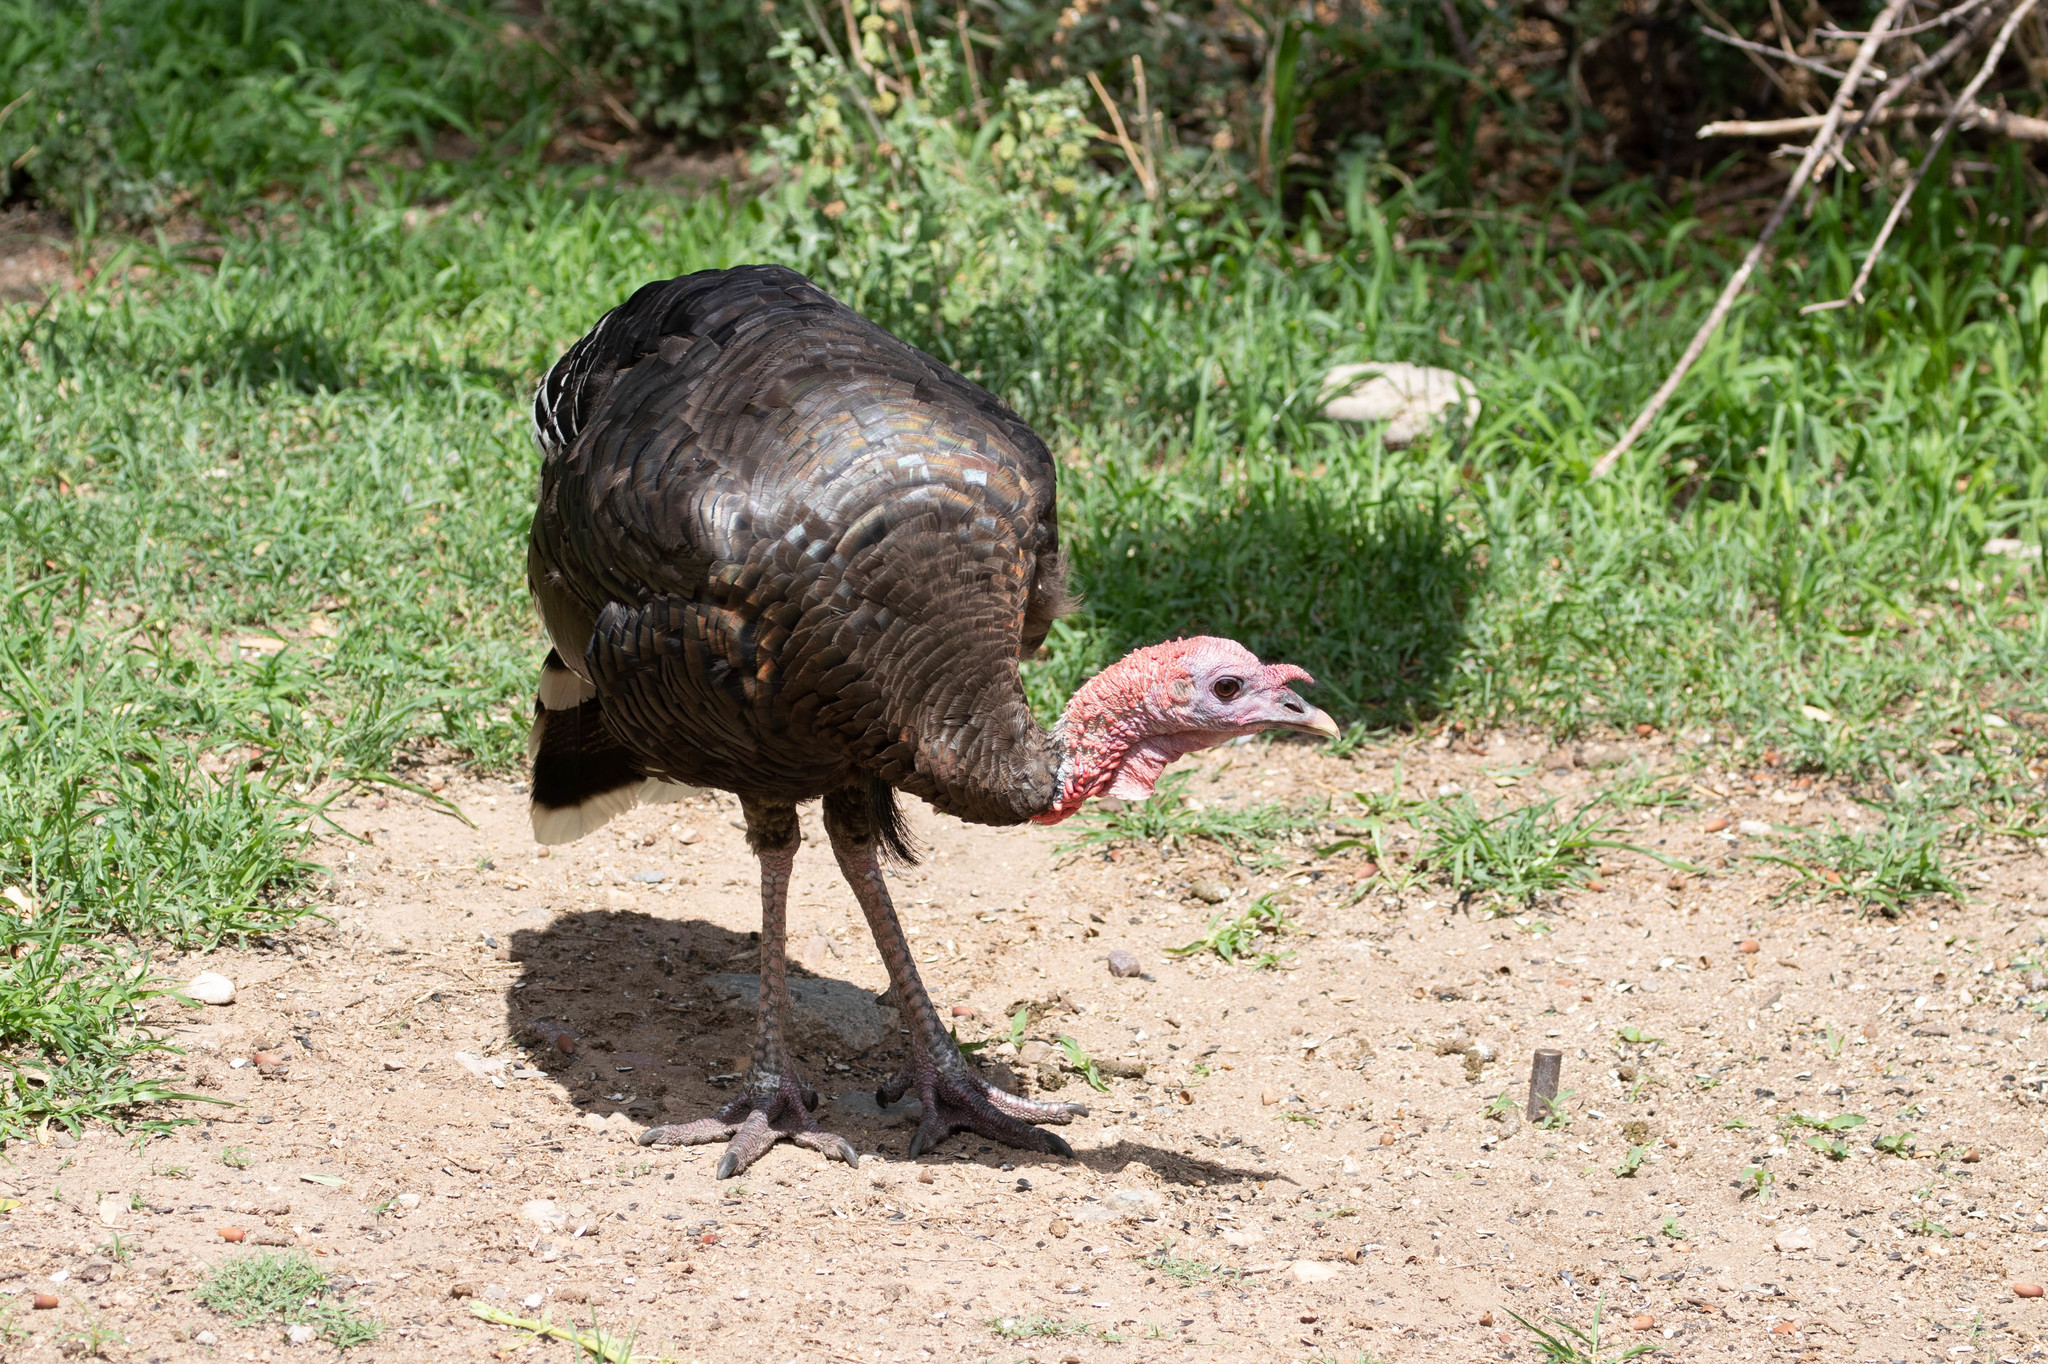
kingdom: Animalia
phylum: Chordata
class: Aves
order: Galliformes
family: Phasianidae
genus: Meleagris
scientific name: Meleagris gallopavo
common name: Wild turkey
